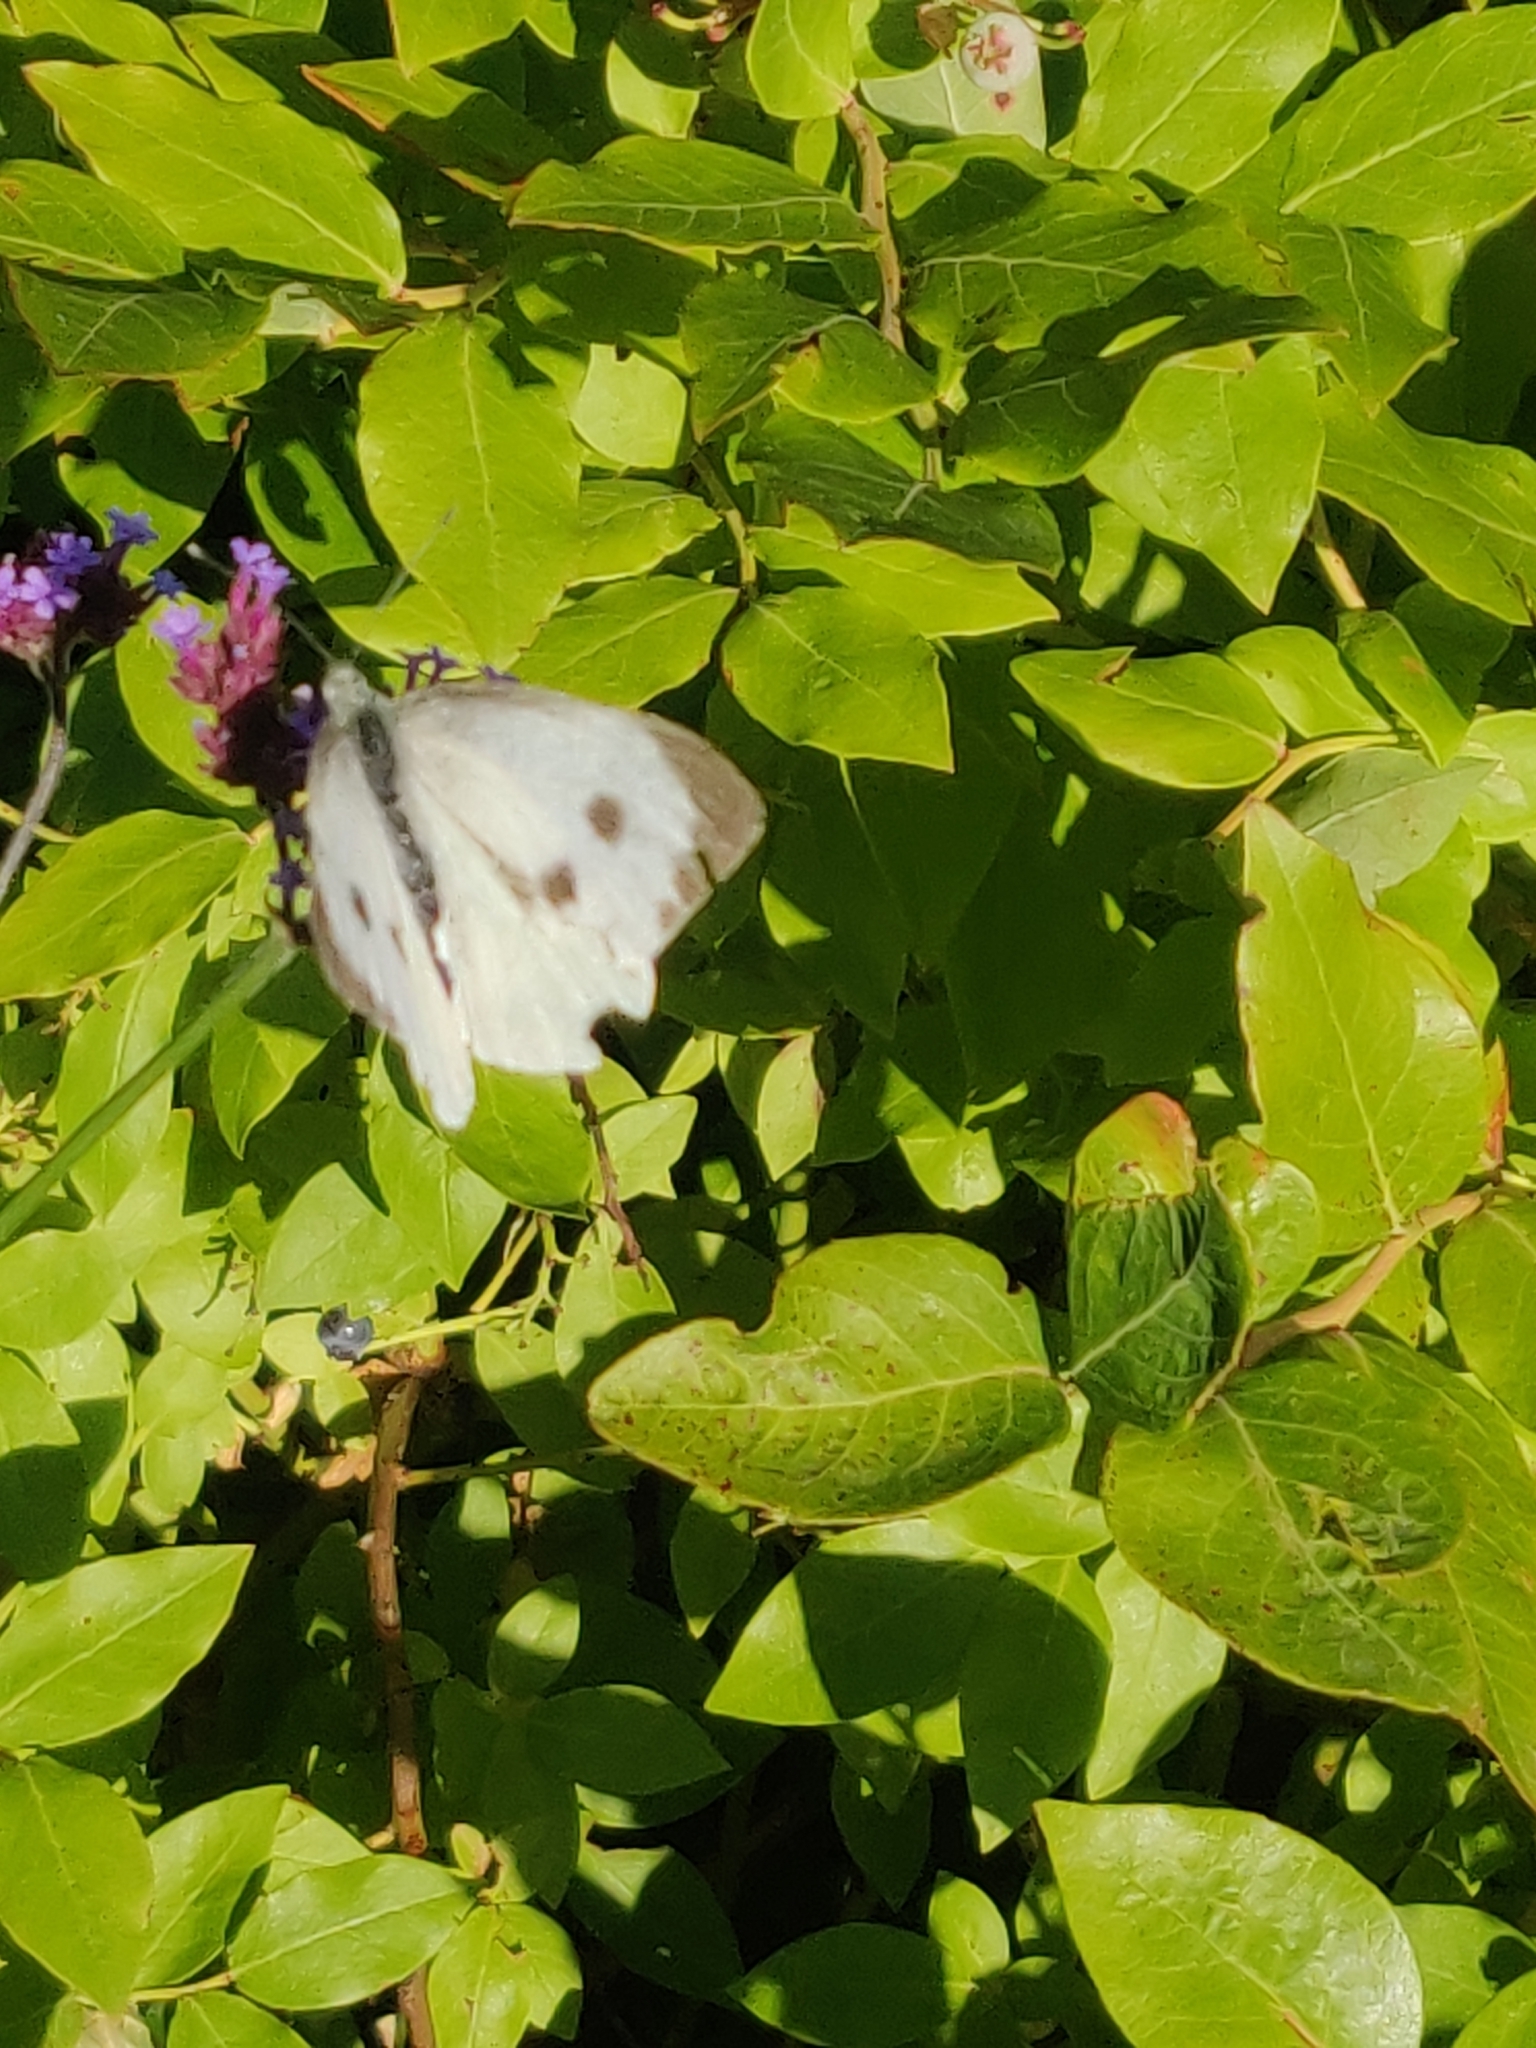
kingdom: Animalia
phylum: Arthropoda
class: Insecta
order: Lepidoptera
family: Pieridae
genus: Pieris
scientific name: Pieris brassicae
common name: Large white
